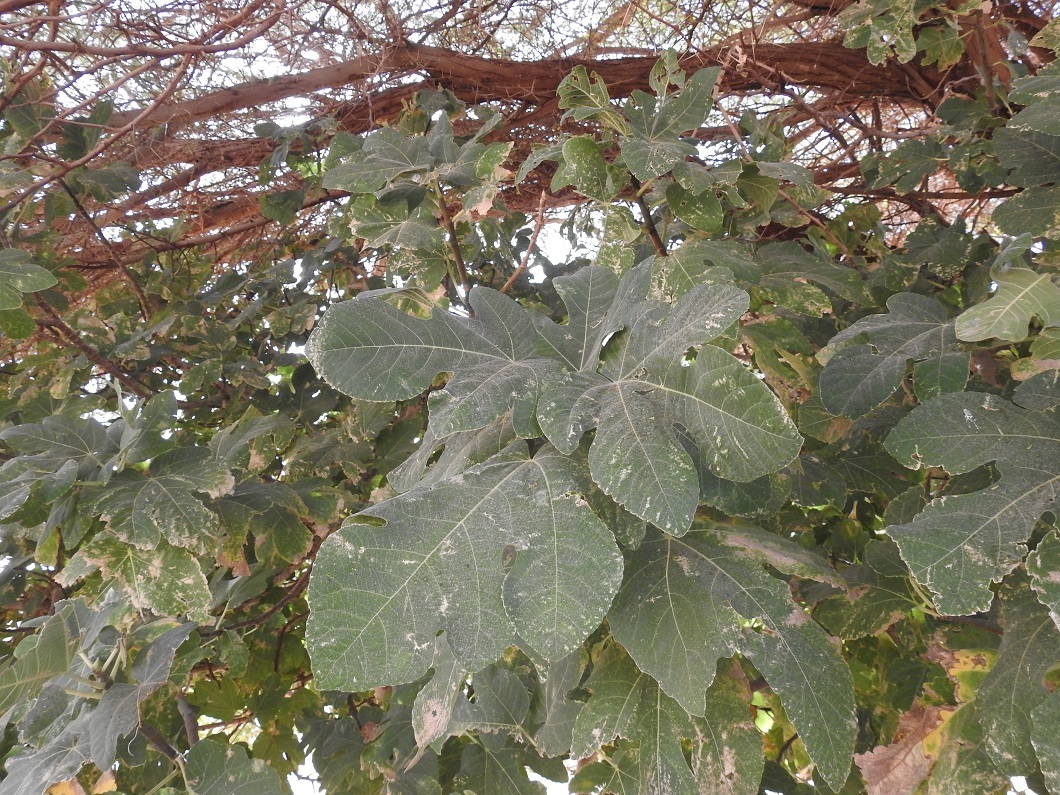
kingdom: Plantae
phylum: Tracheophyta
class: Magnoliopsida
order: Rosales
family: Moraceae
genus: Ficus
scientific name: Ficus carica
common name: Fig
